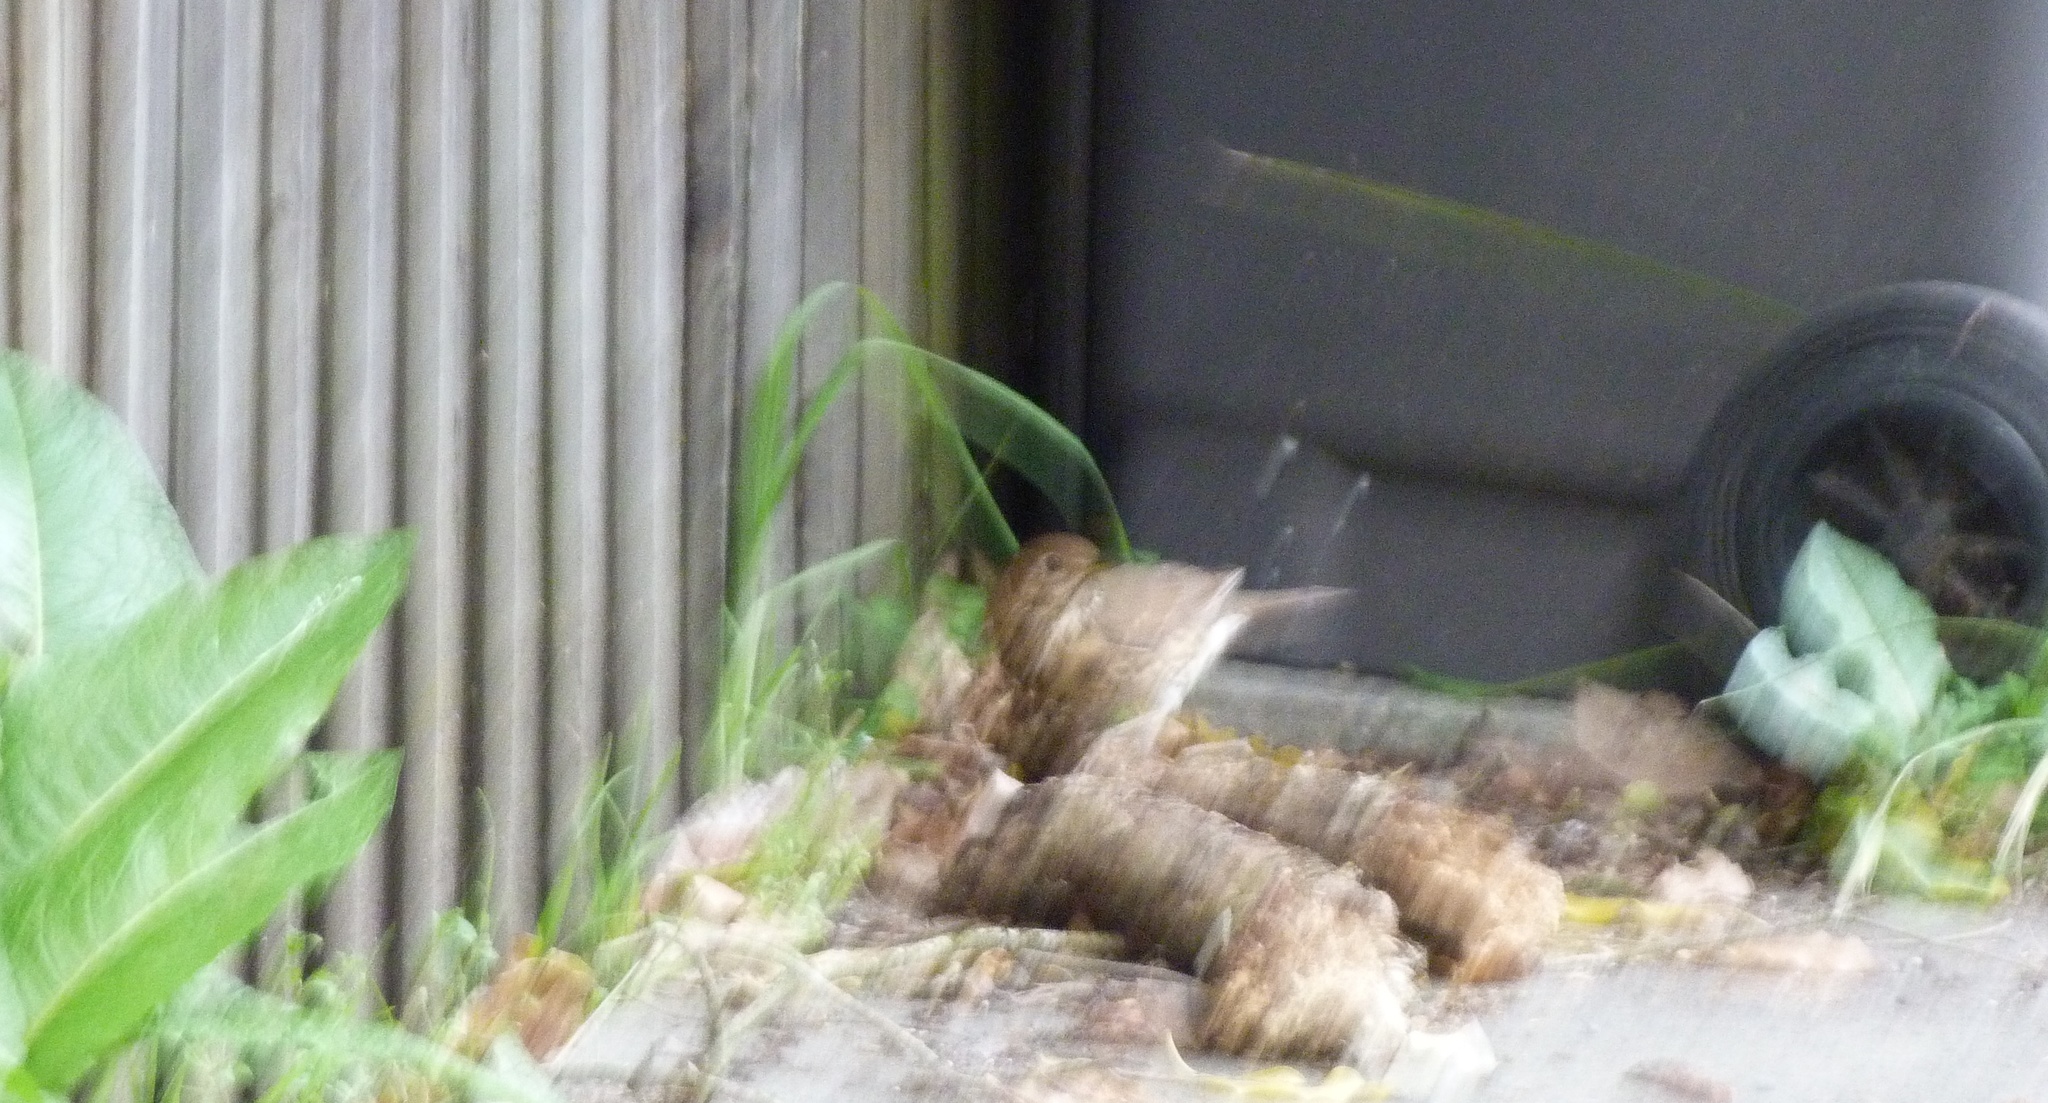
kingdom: Animalia
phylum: Chordata
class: Aves
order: Passeriformes
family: Turdidae
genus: Turdus
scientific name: Turdus philomelos
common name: Song thrush
